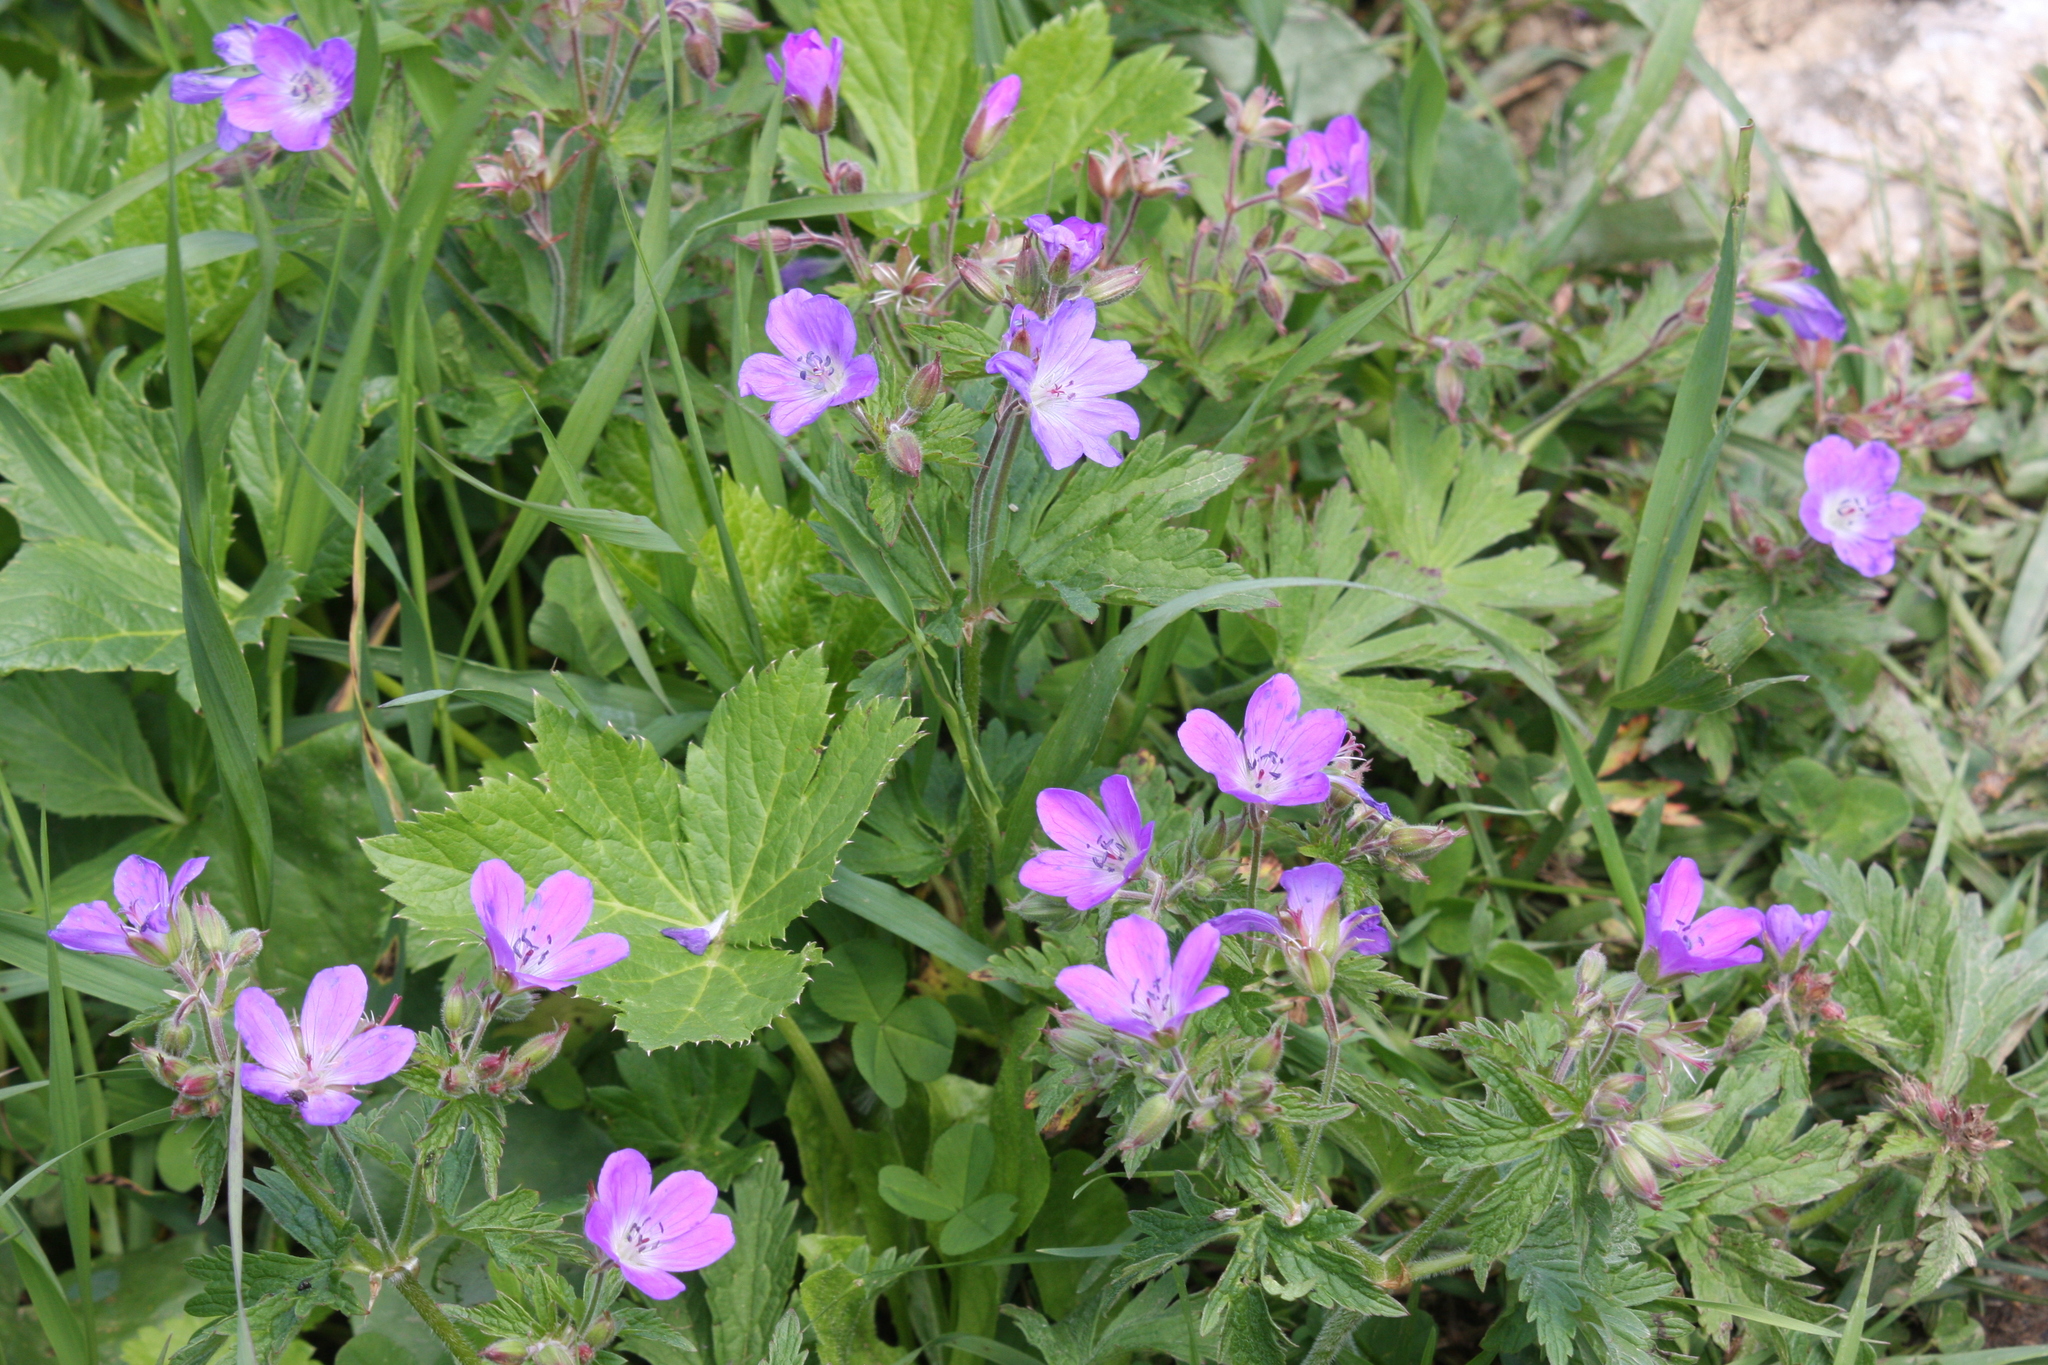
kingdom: Plantae
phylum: Tracheophyta
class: Magnoliopsida
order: Geraniales
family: Geraniaceae
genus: Geranium
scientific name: Geranium sylvaticum
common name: Wood crane's-bill
